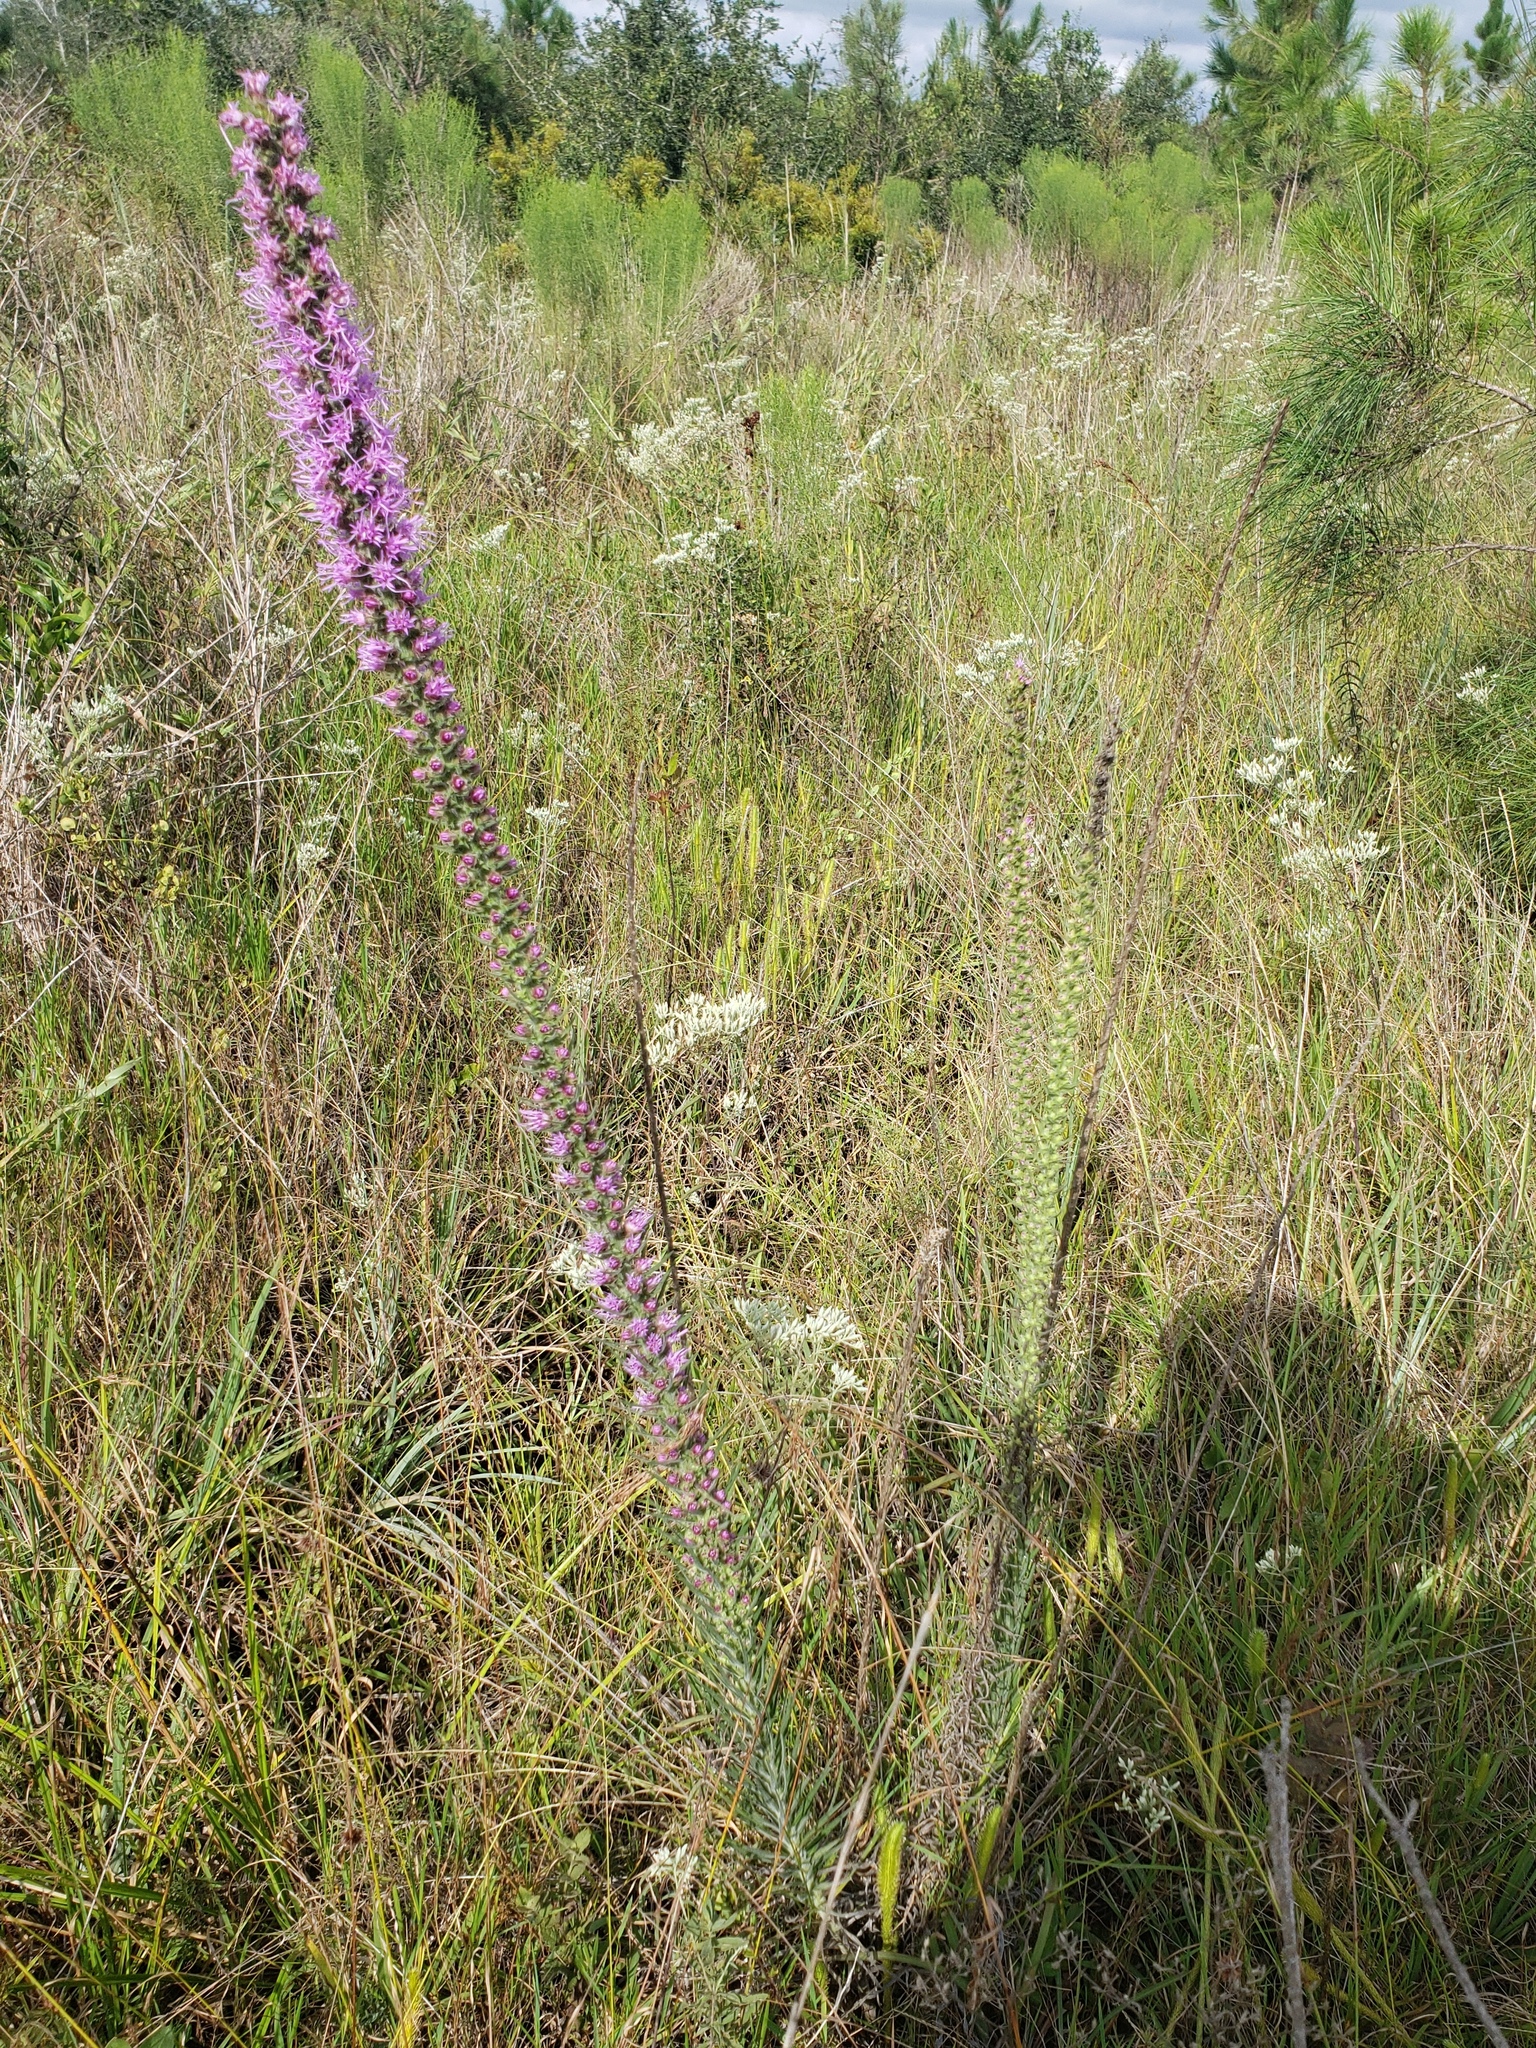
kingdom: Plantae
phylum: Tracheophyta
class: Magnoliopsida
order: Asterales
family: Asteraceae
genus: Liatris
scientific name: Liatris pycnostachya
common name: Cattail gayfeather
